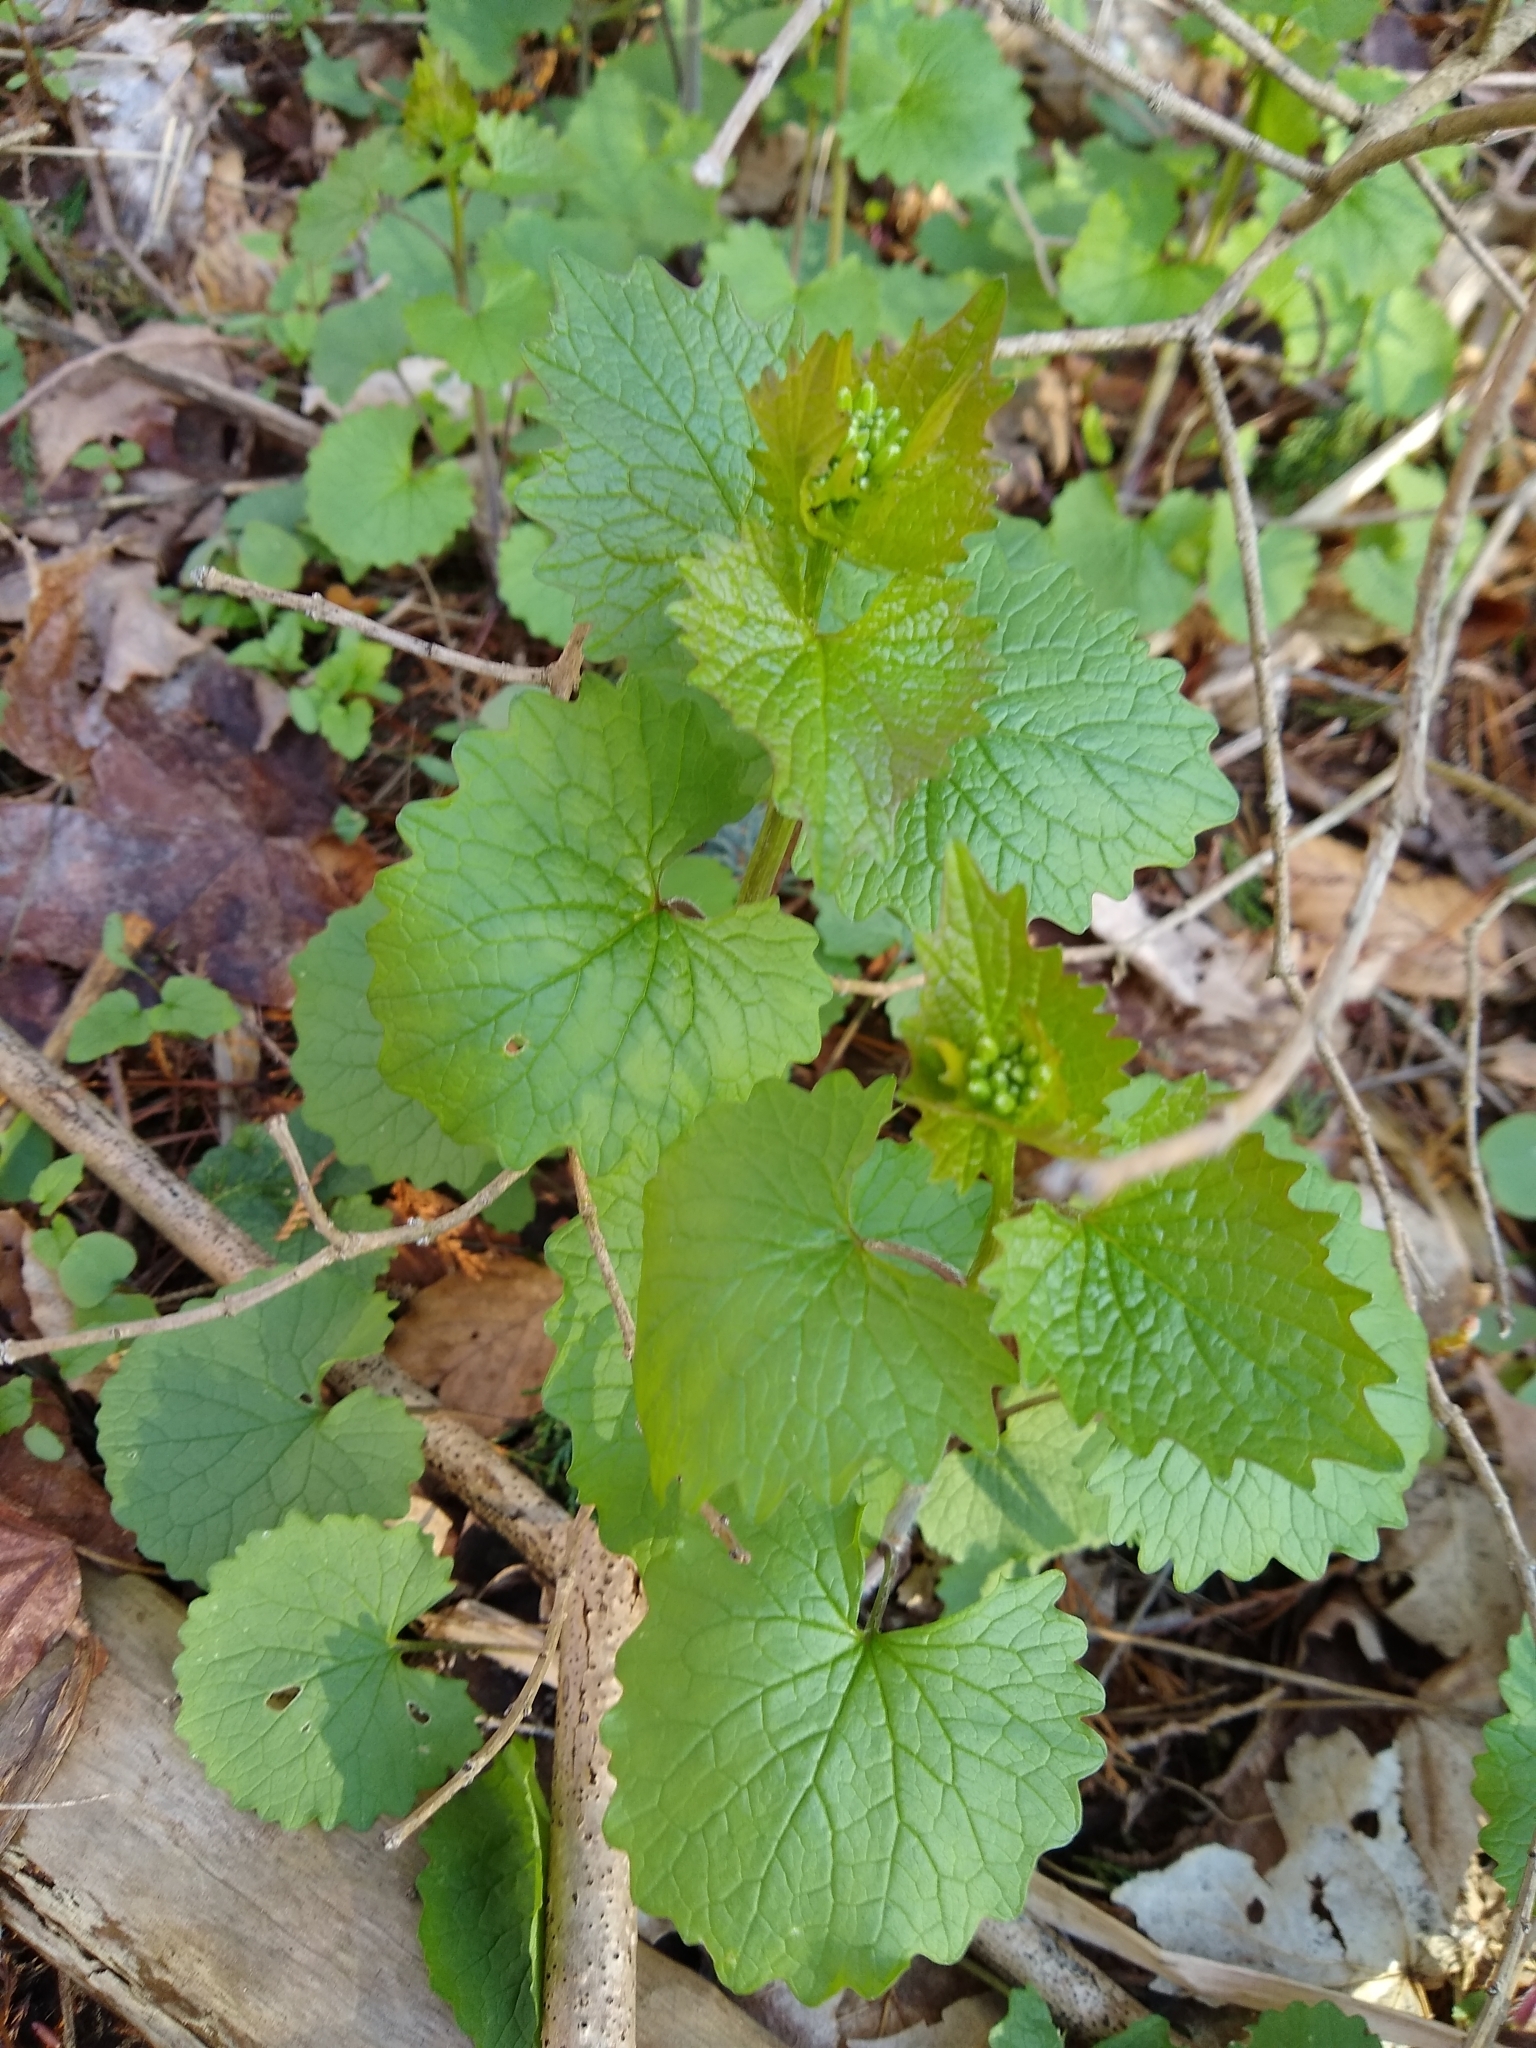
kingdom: Plantae
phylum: Tracheophyta
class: Magnoliopsida
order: Brassicales
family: Brassicaceae
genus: Alliaria
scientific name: Alliaria petiolata
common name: Garlic mustard
